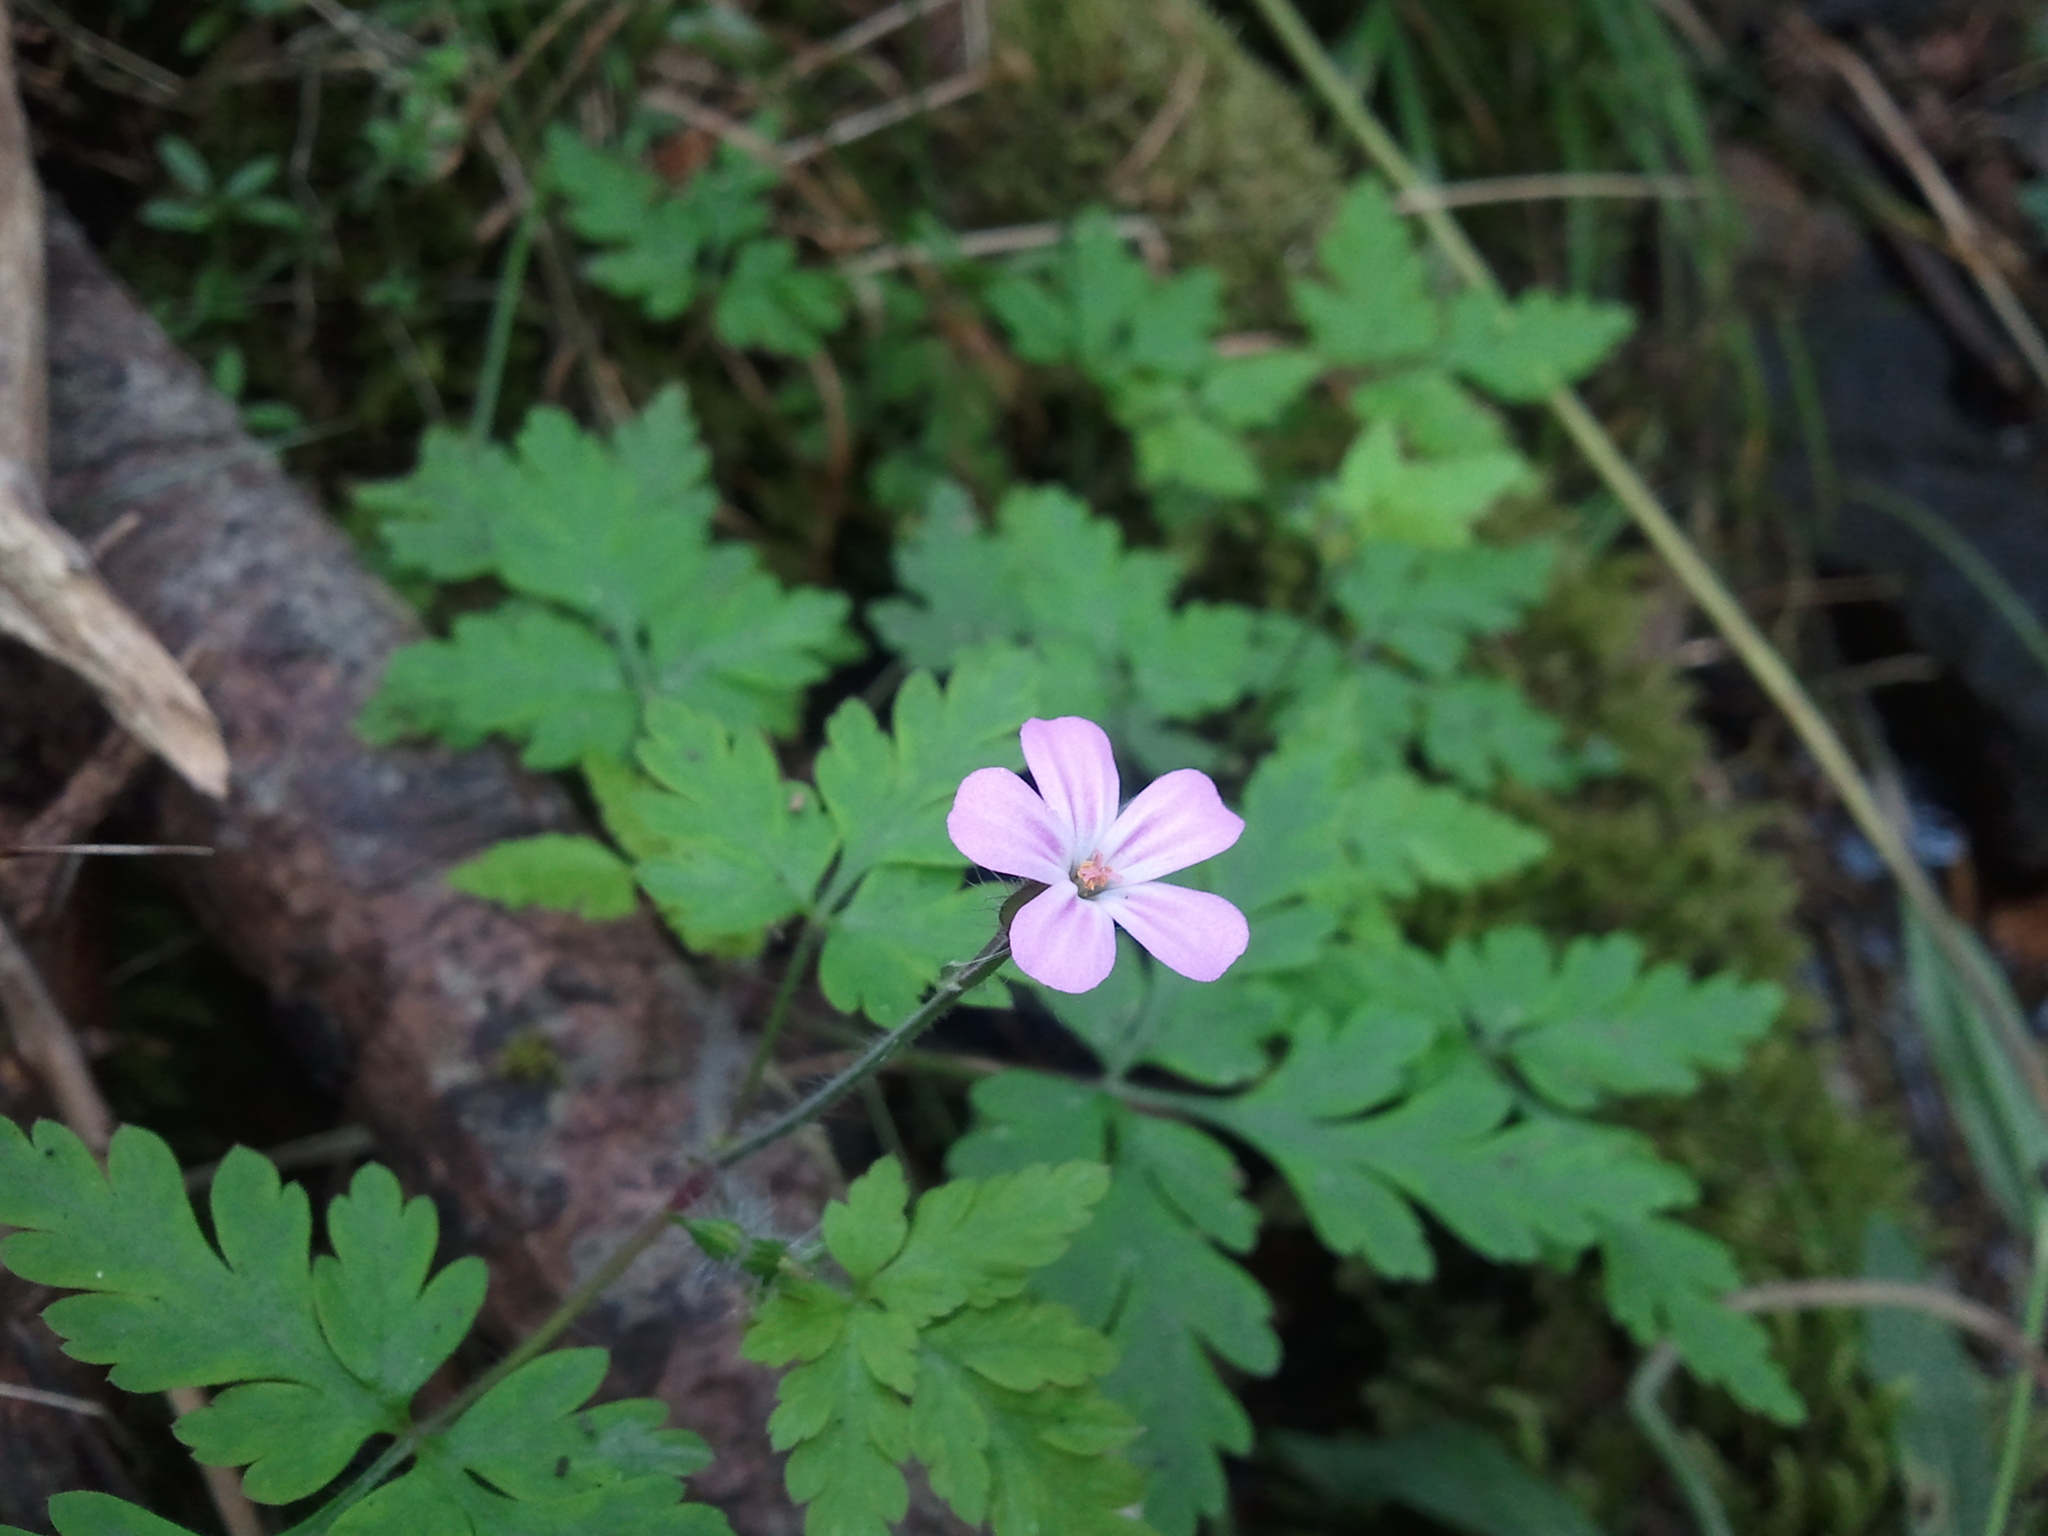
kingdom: Plantae
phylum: Tracheophyta
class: Magnoliopsida
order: Geraniales
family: Geraniaceae
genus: Geranium
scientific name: Geranium robertianum
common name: Herb-robert
